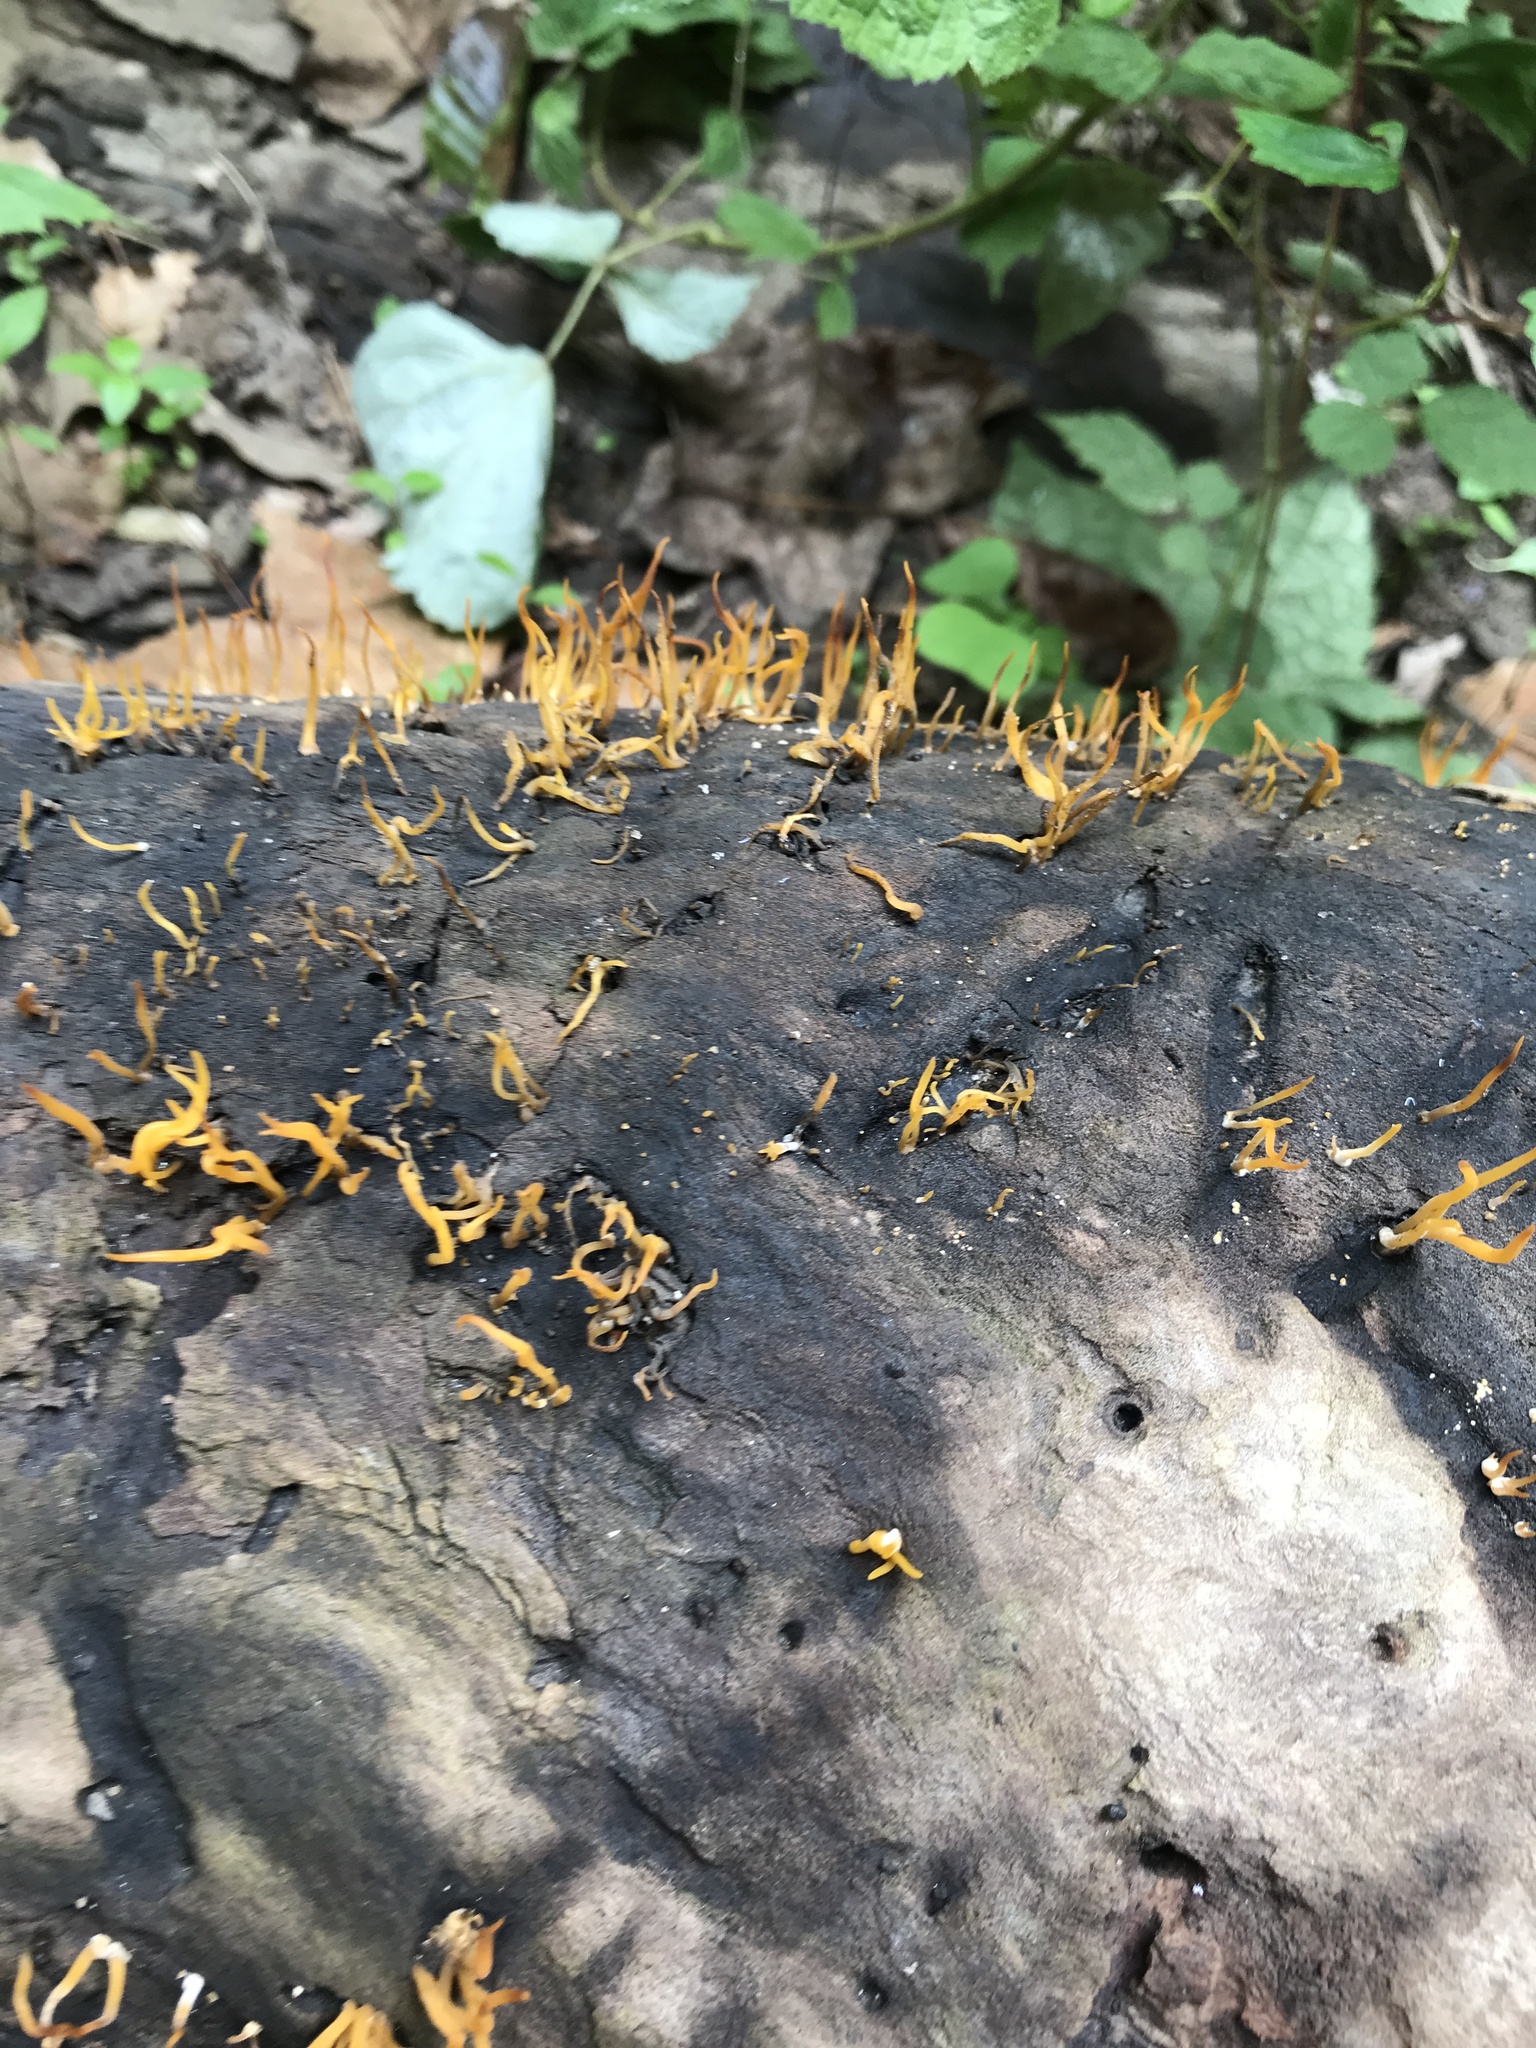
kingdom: Fungi
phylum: Basidiomycota
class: Dacrymycetes
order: Dacrymycetales
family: Dacrymycetaceae
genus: Calocera
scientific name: Calocera cornea
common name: Small stagshorn
